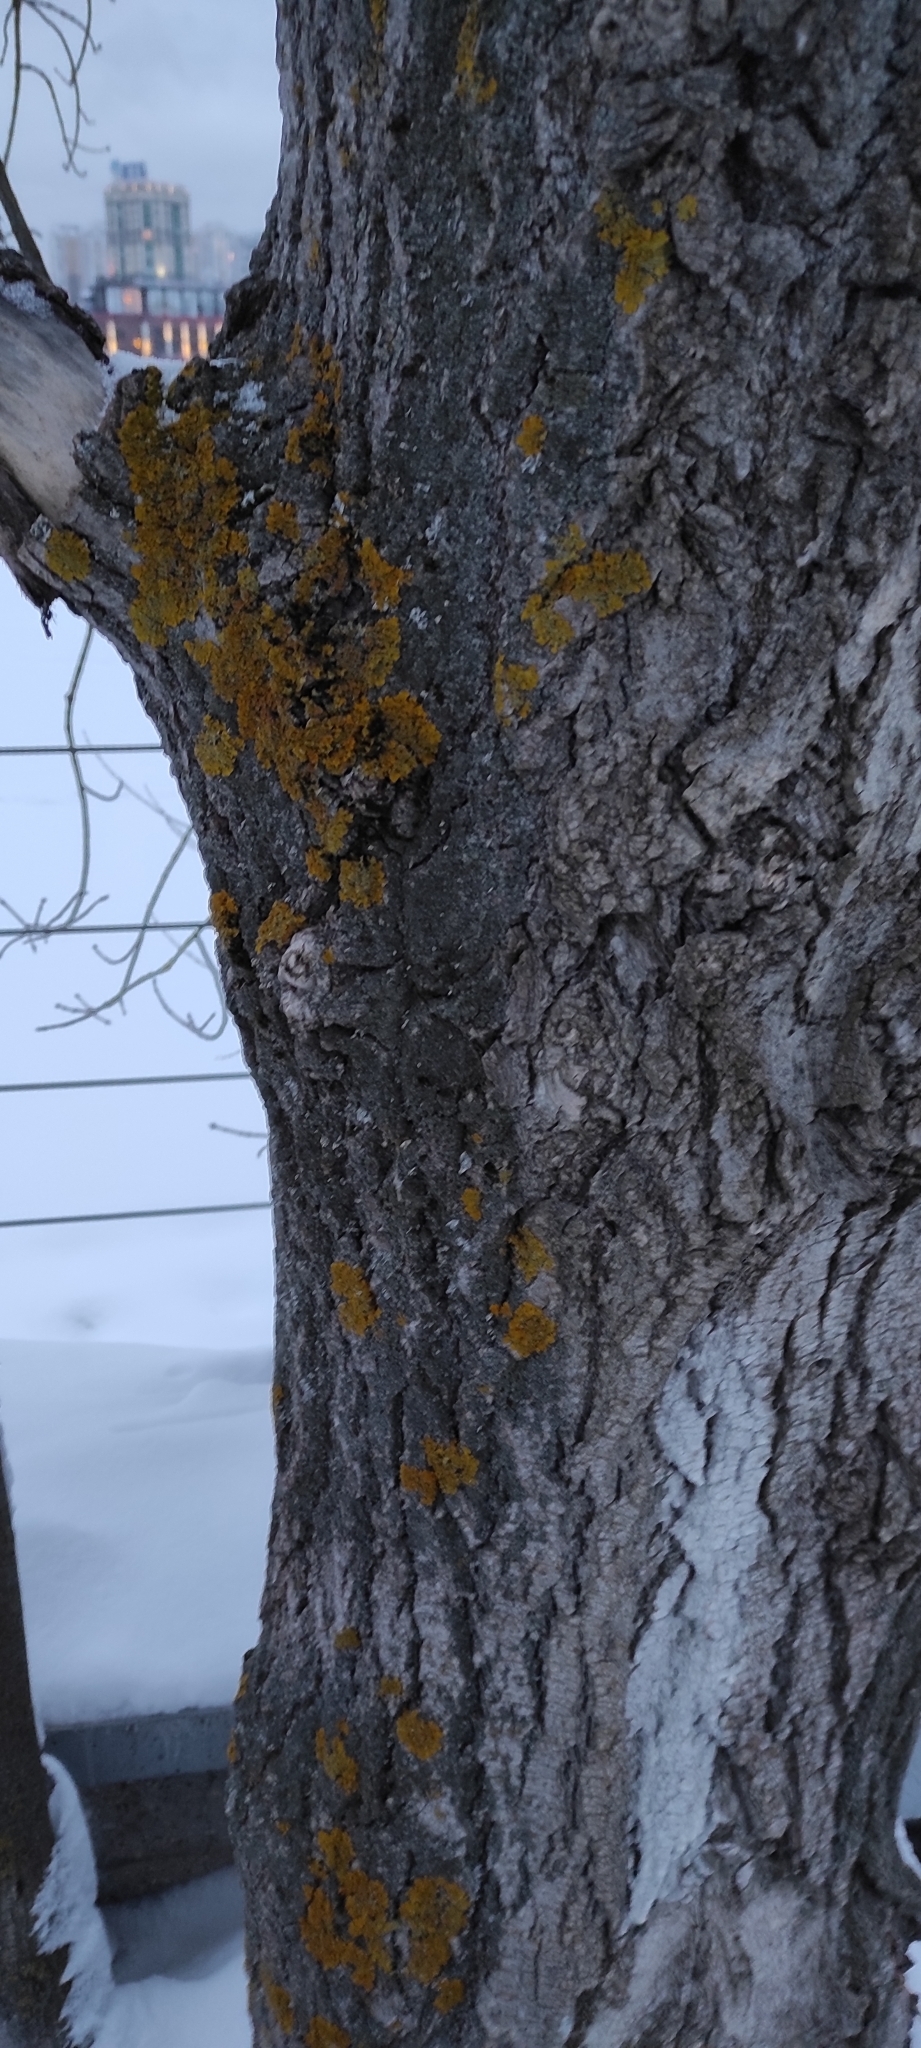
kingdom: Fungi
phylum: Ascomycota
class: Lecanoromycetes
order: Teloschistales
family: Teloschistaceae
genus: Xanthoria
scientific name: Xanthoria parietina
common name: Common orange lichen
